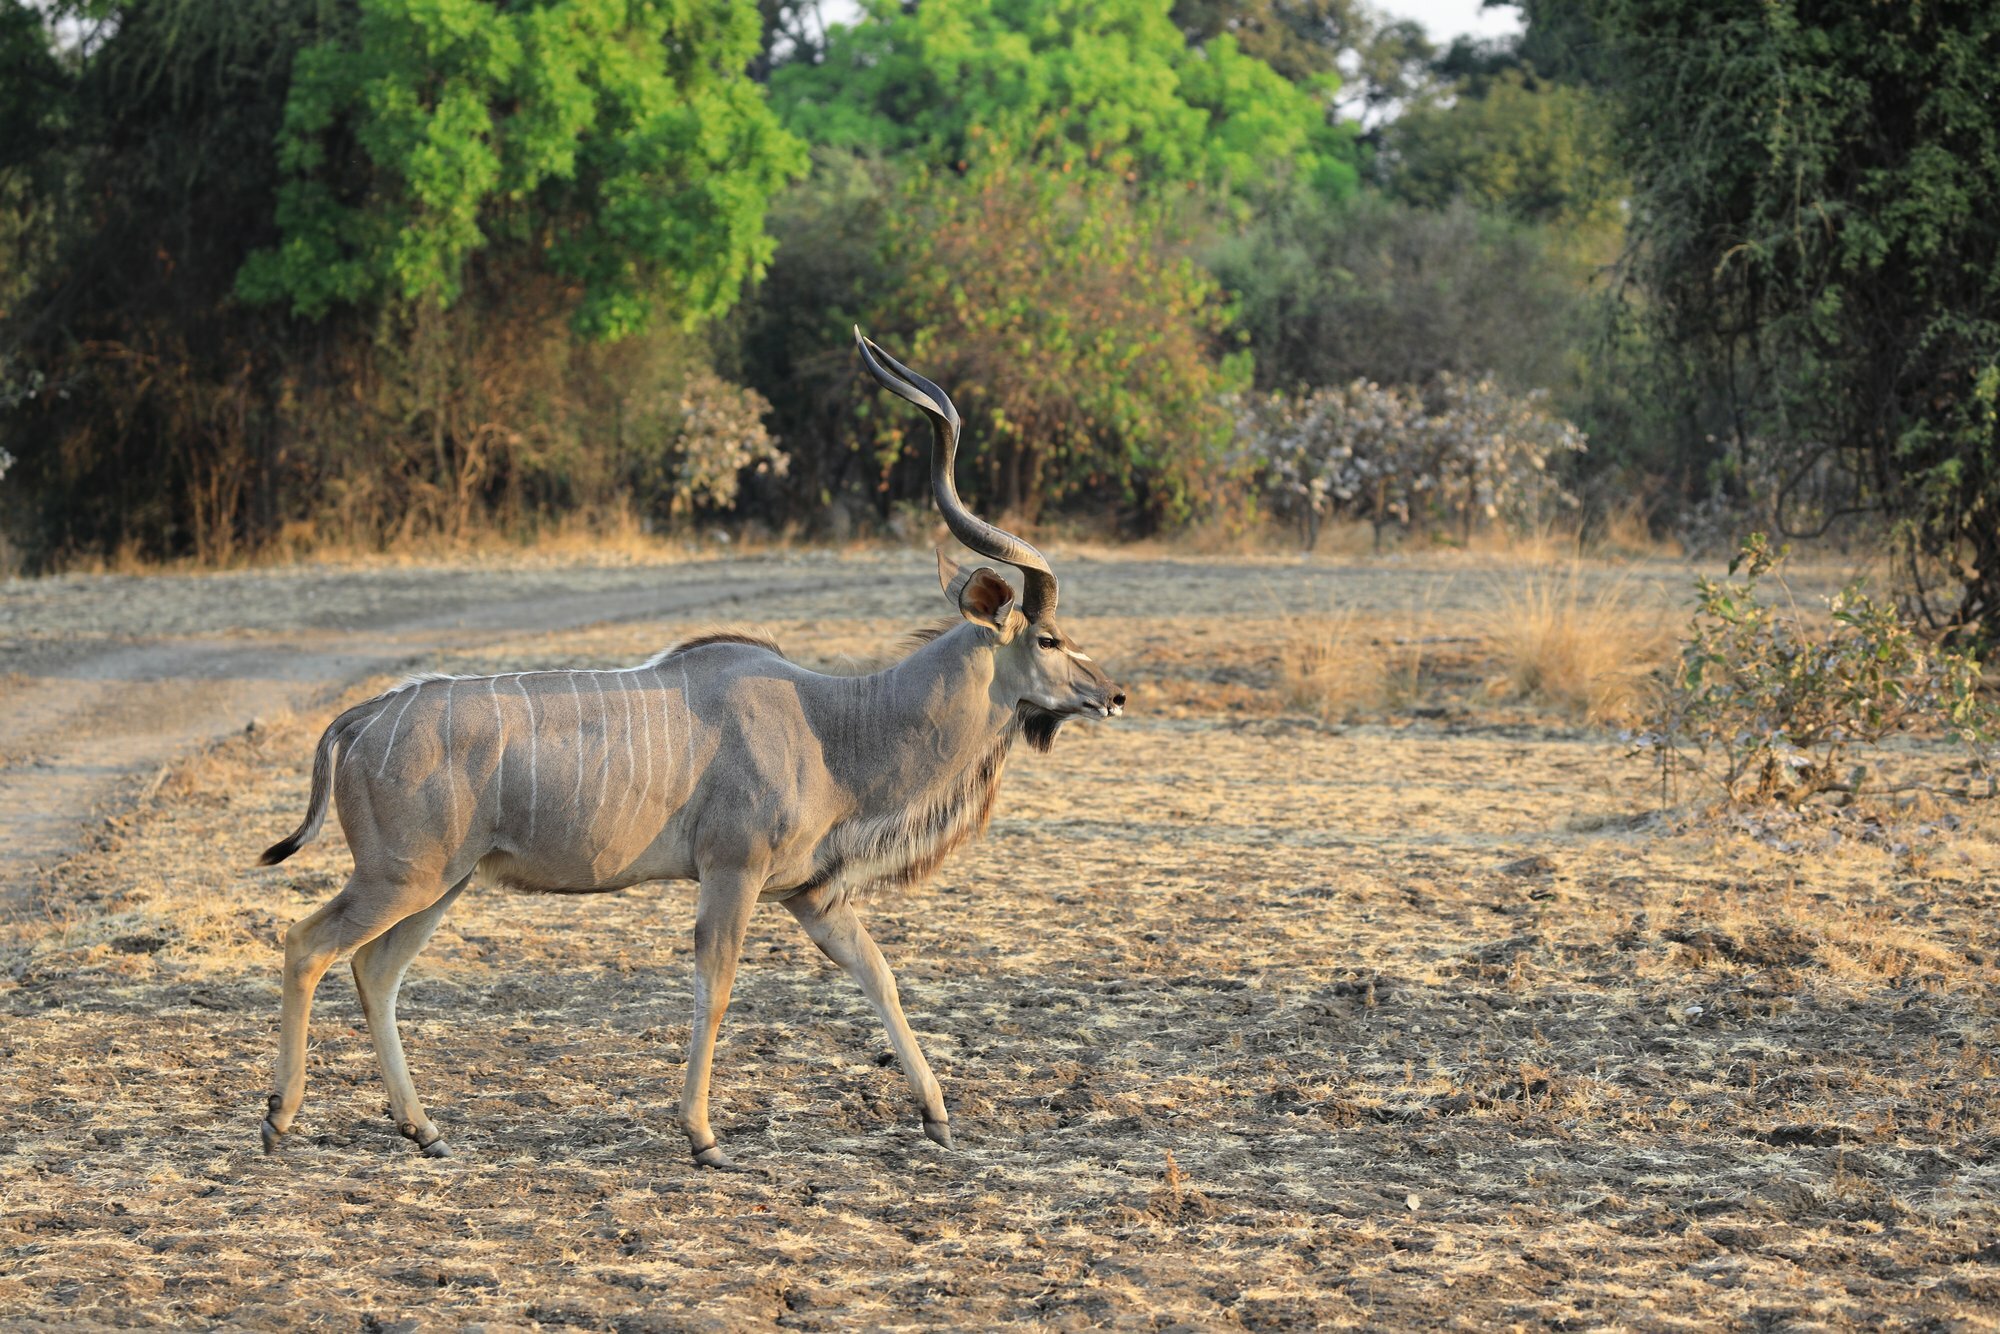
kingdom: Animalia
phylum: Chordata
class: Mammalia
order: Artiodactyla
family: Bovidae
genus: Tragelaphus
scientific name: Tragelaphus strepsiceros
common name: Greater kudu
